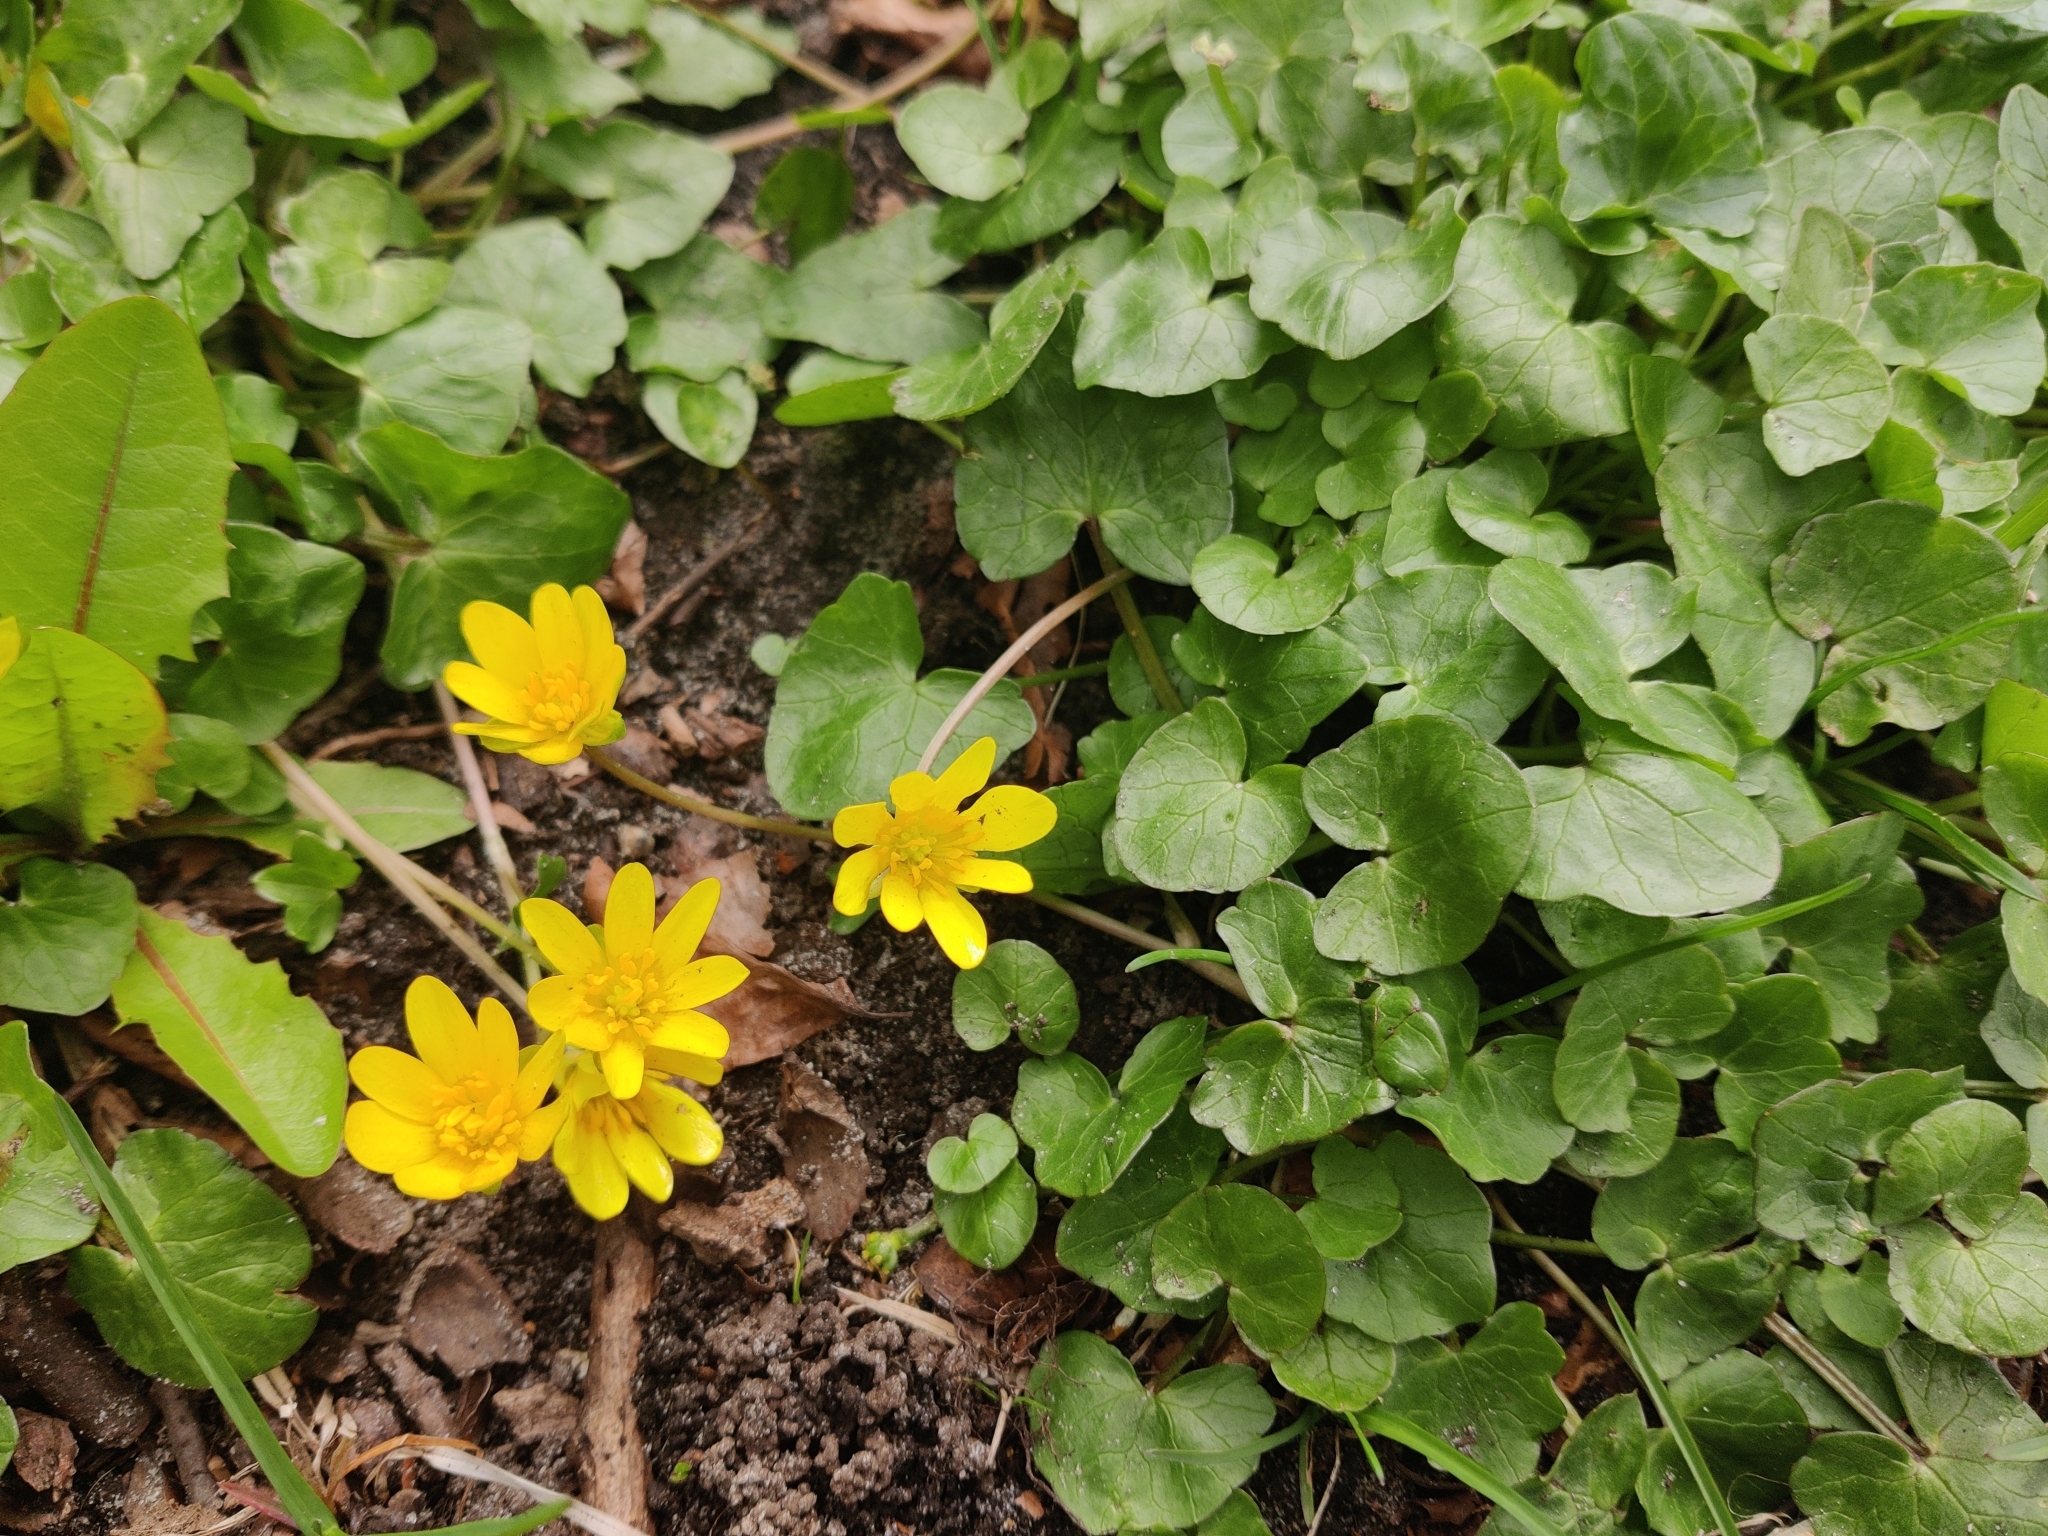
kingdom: Plantae
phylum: Tracheophyta
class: Magnoliopsida
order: Ranunculales
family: Ranunculaceae
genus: Ficaria
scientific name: Ficaria verna
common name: Lesser celandine
